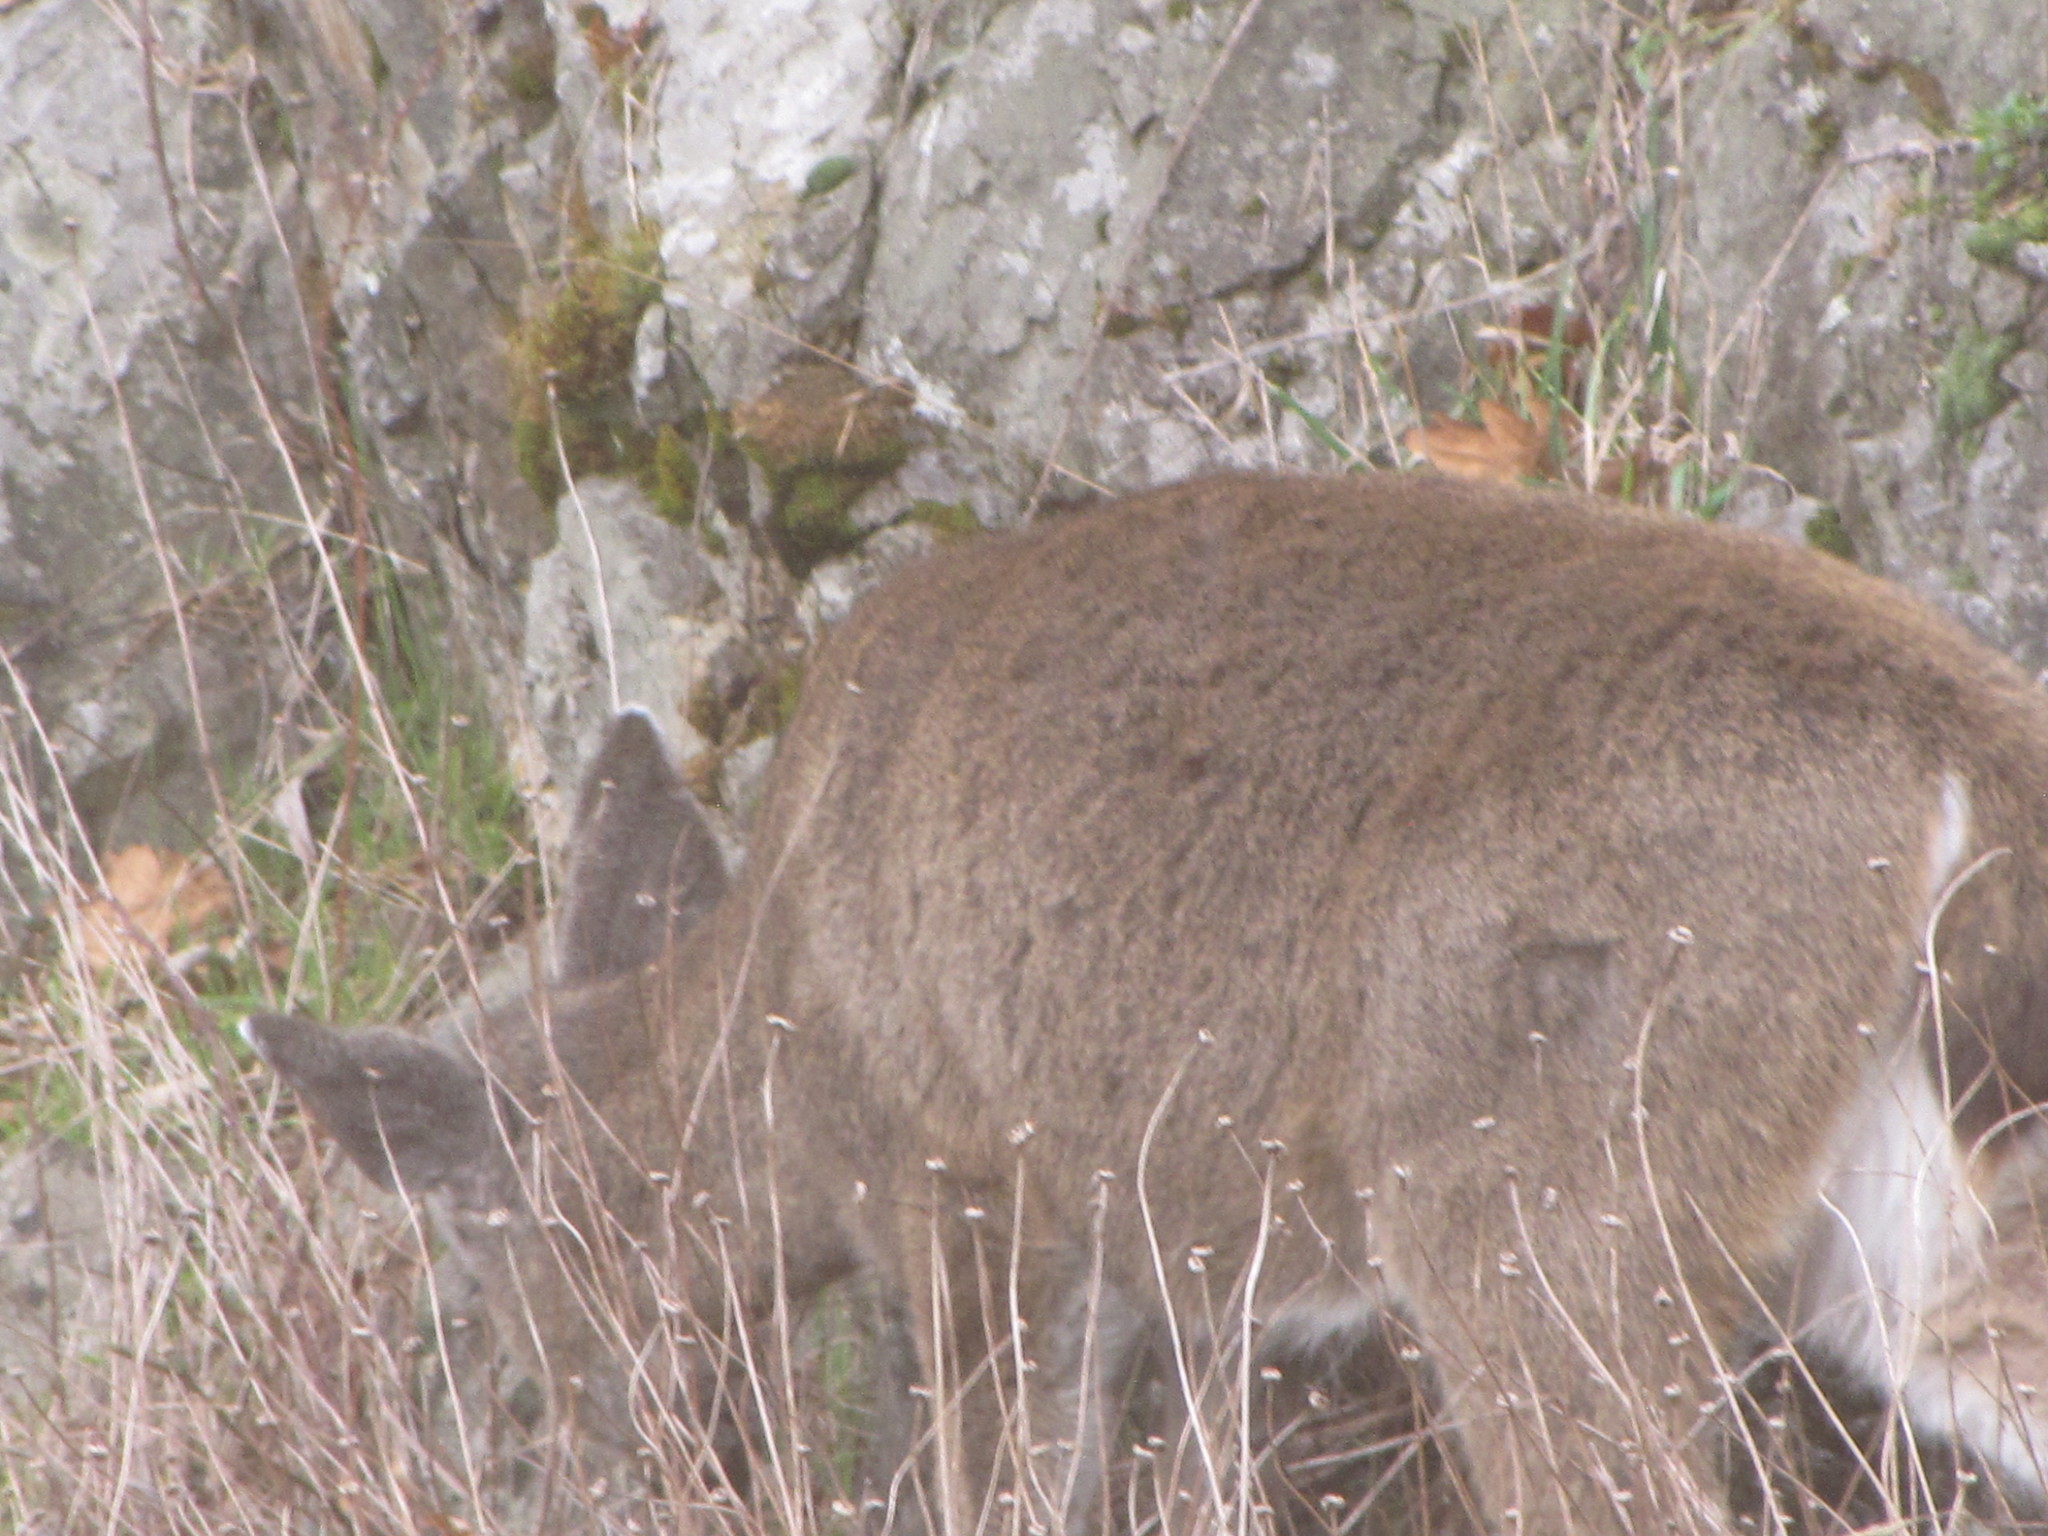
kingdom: Animalia
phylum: Chordata
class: Mammalia
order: Artiodactyla
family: Cervidae
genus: Odocoileus
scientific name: Odocoileus hemionus
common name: Mule deer
